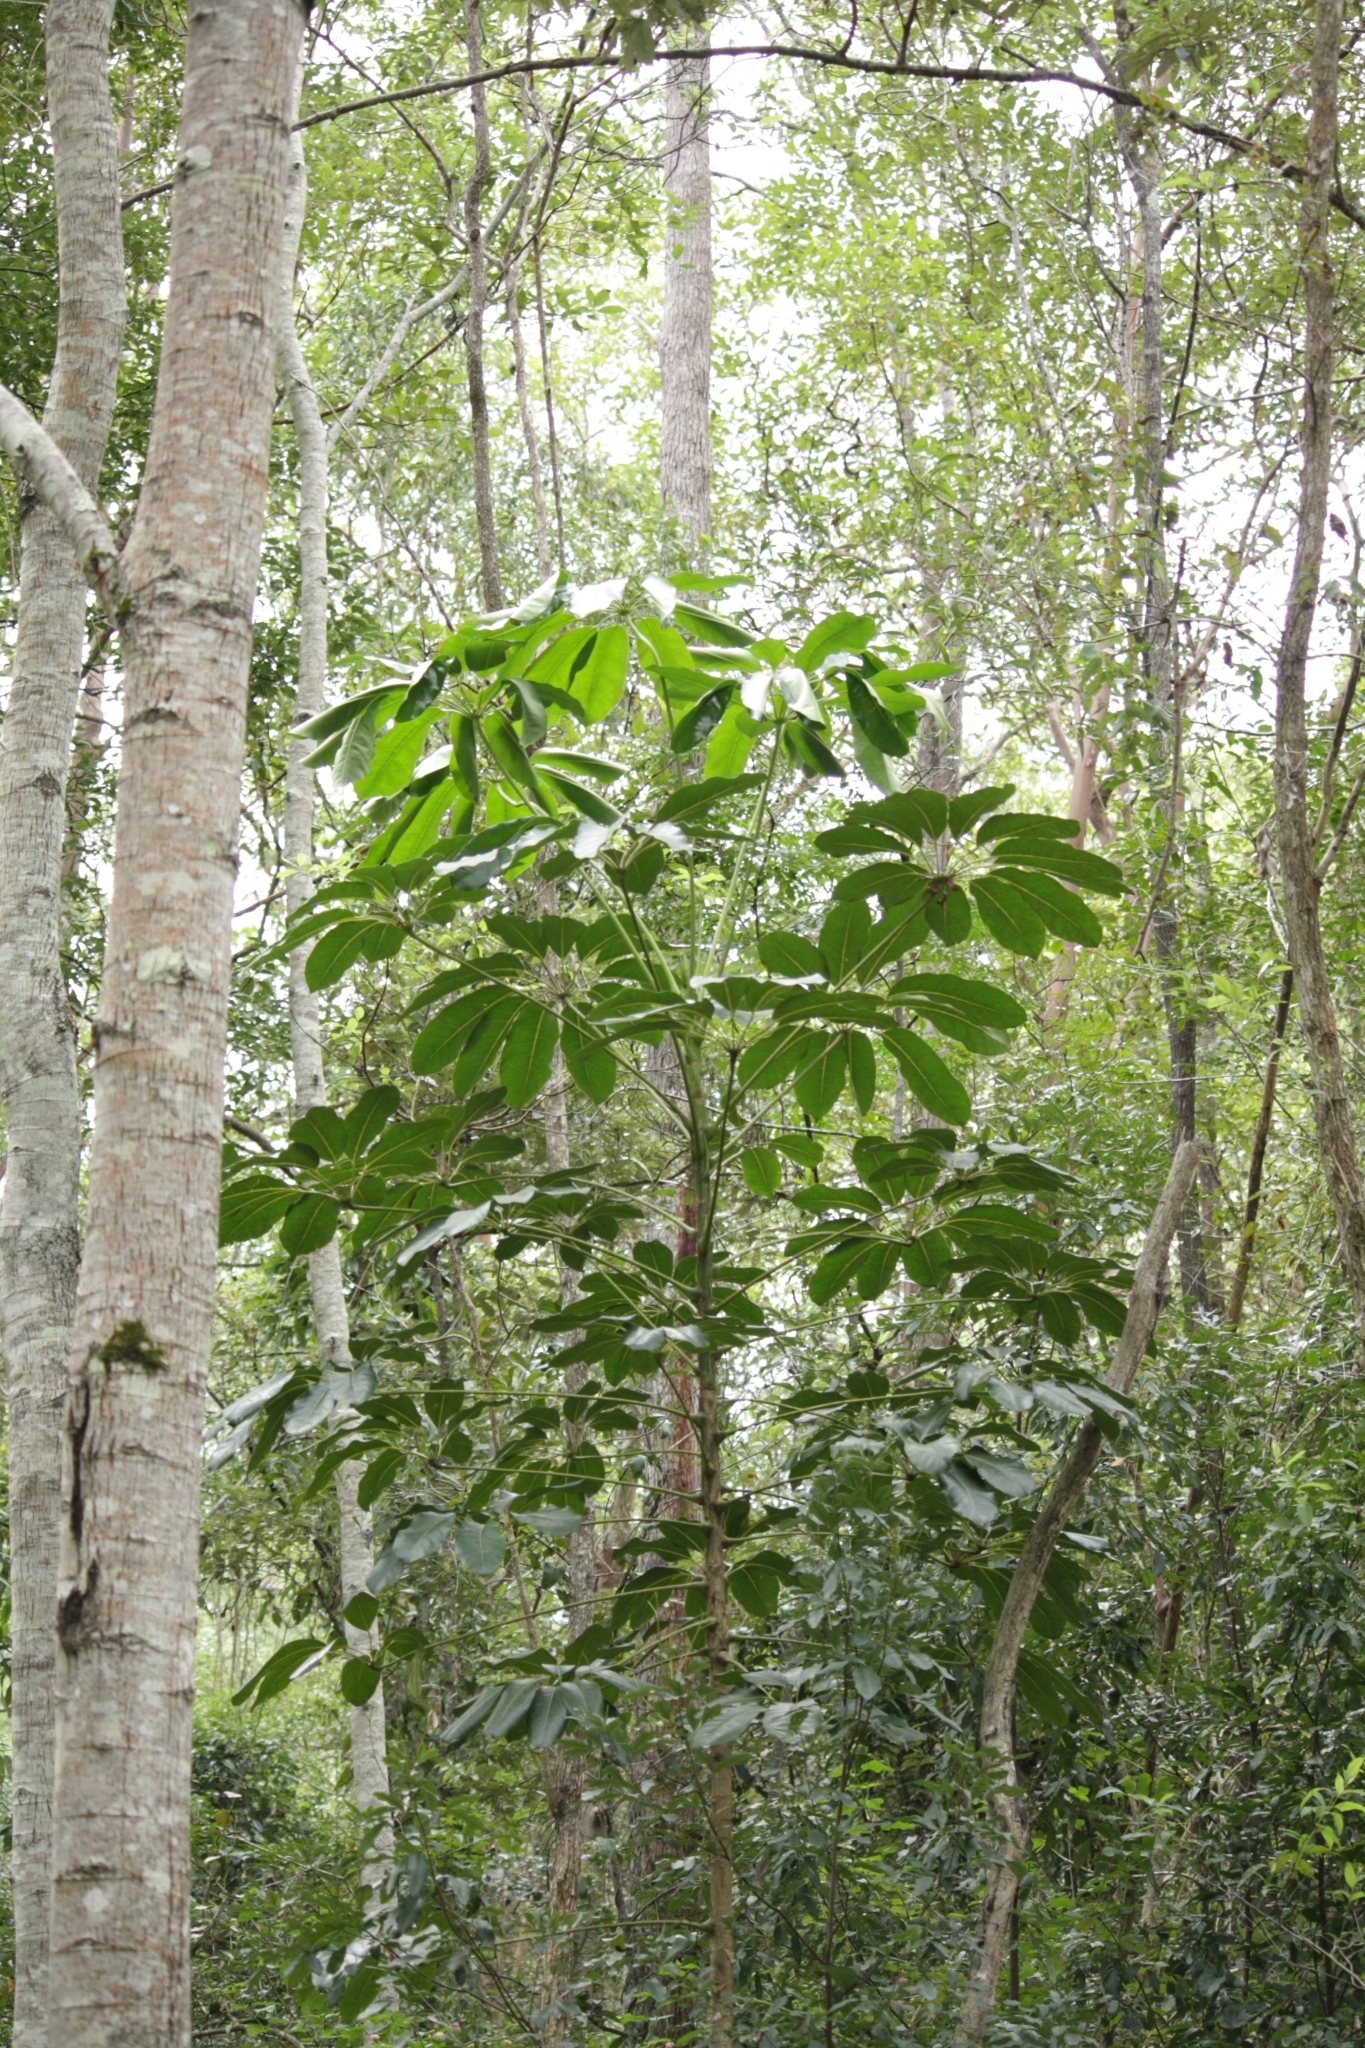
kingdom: Plantae
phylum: Tracheophyta
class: Magnoliopsida
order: Apiales
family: Araliaceae
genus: Heptapleurum
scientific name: Heptapleurum actinophyllum
